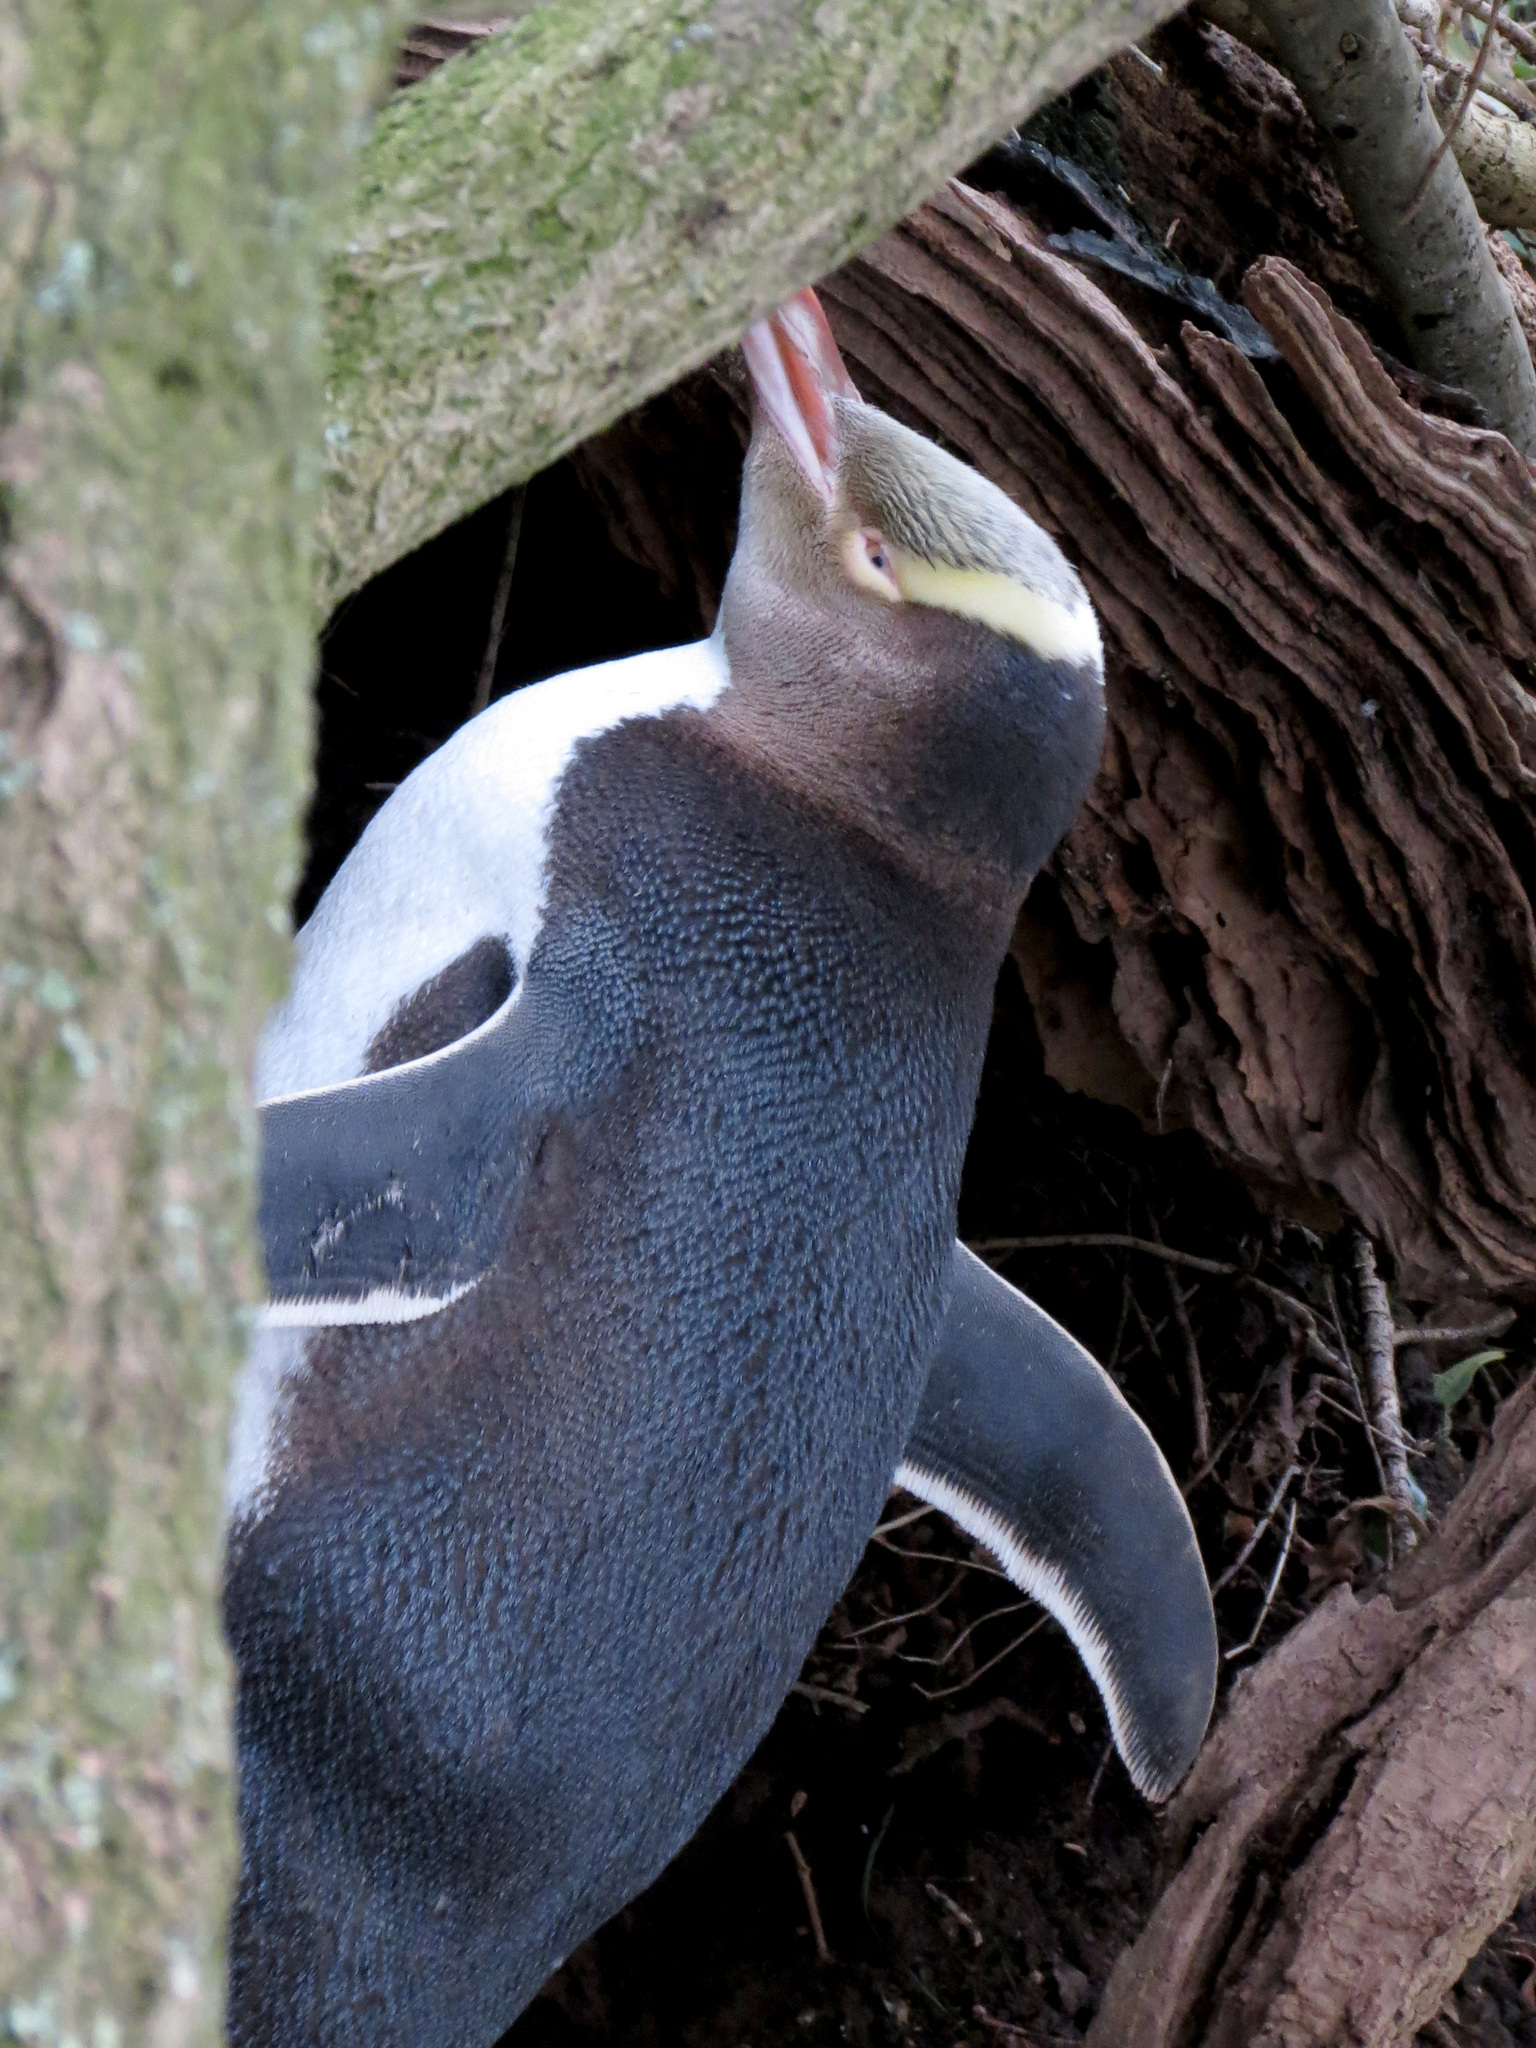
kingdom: Animalia
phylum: Chordata
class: Aves
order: Sphenisciformes
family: Spheniscidae
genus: Megadyptes
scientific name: Megadyptes antipodes
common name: Yellow-eyed penguin
